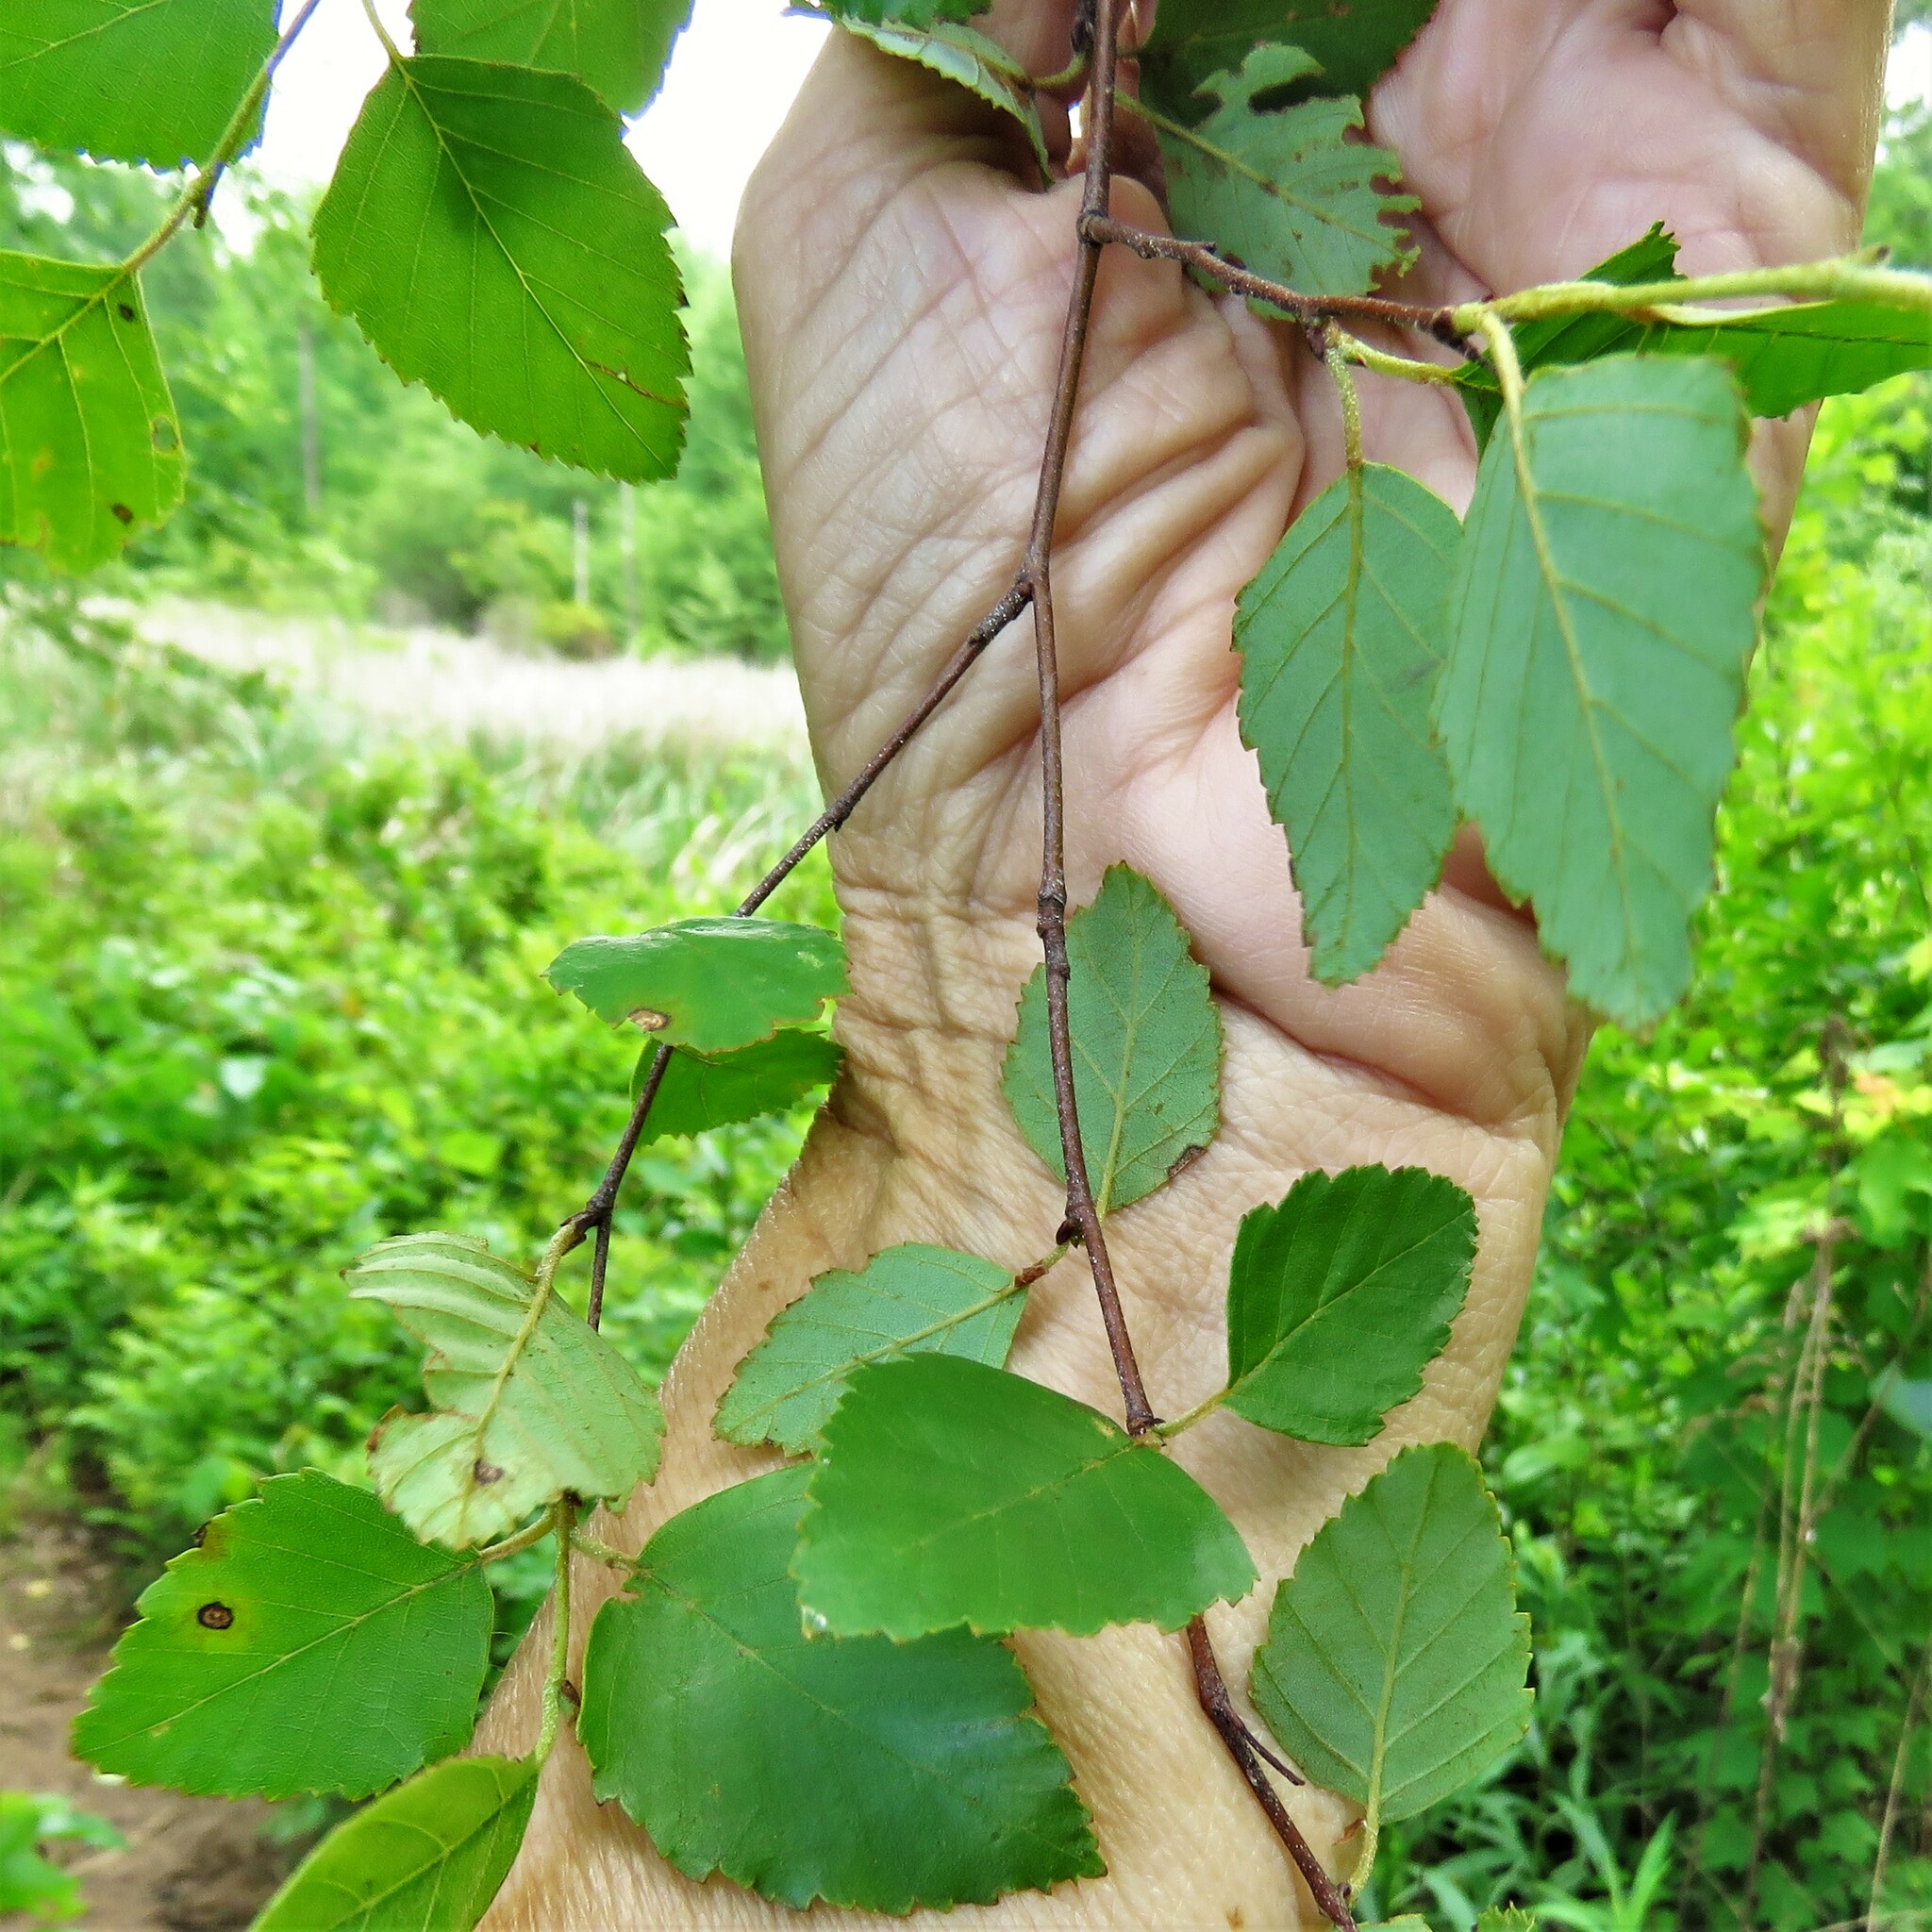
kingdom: Plantae
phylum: Tracheophyta
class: Magnoliopsida
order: Fagales
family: Betulaceae
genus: Betula
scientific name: Betula nigra
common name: Black birch
